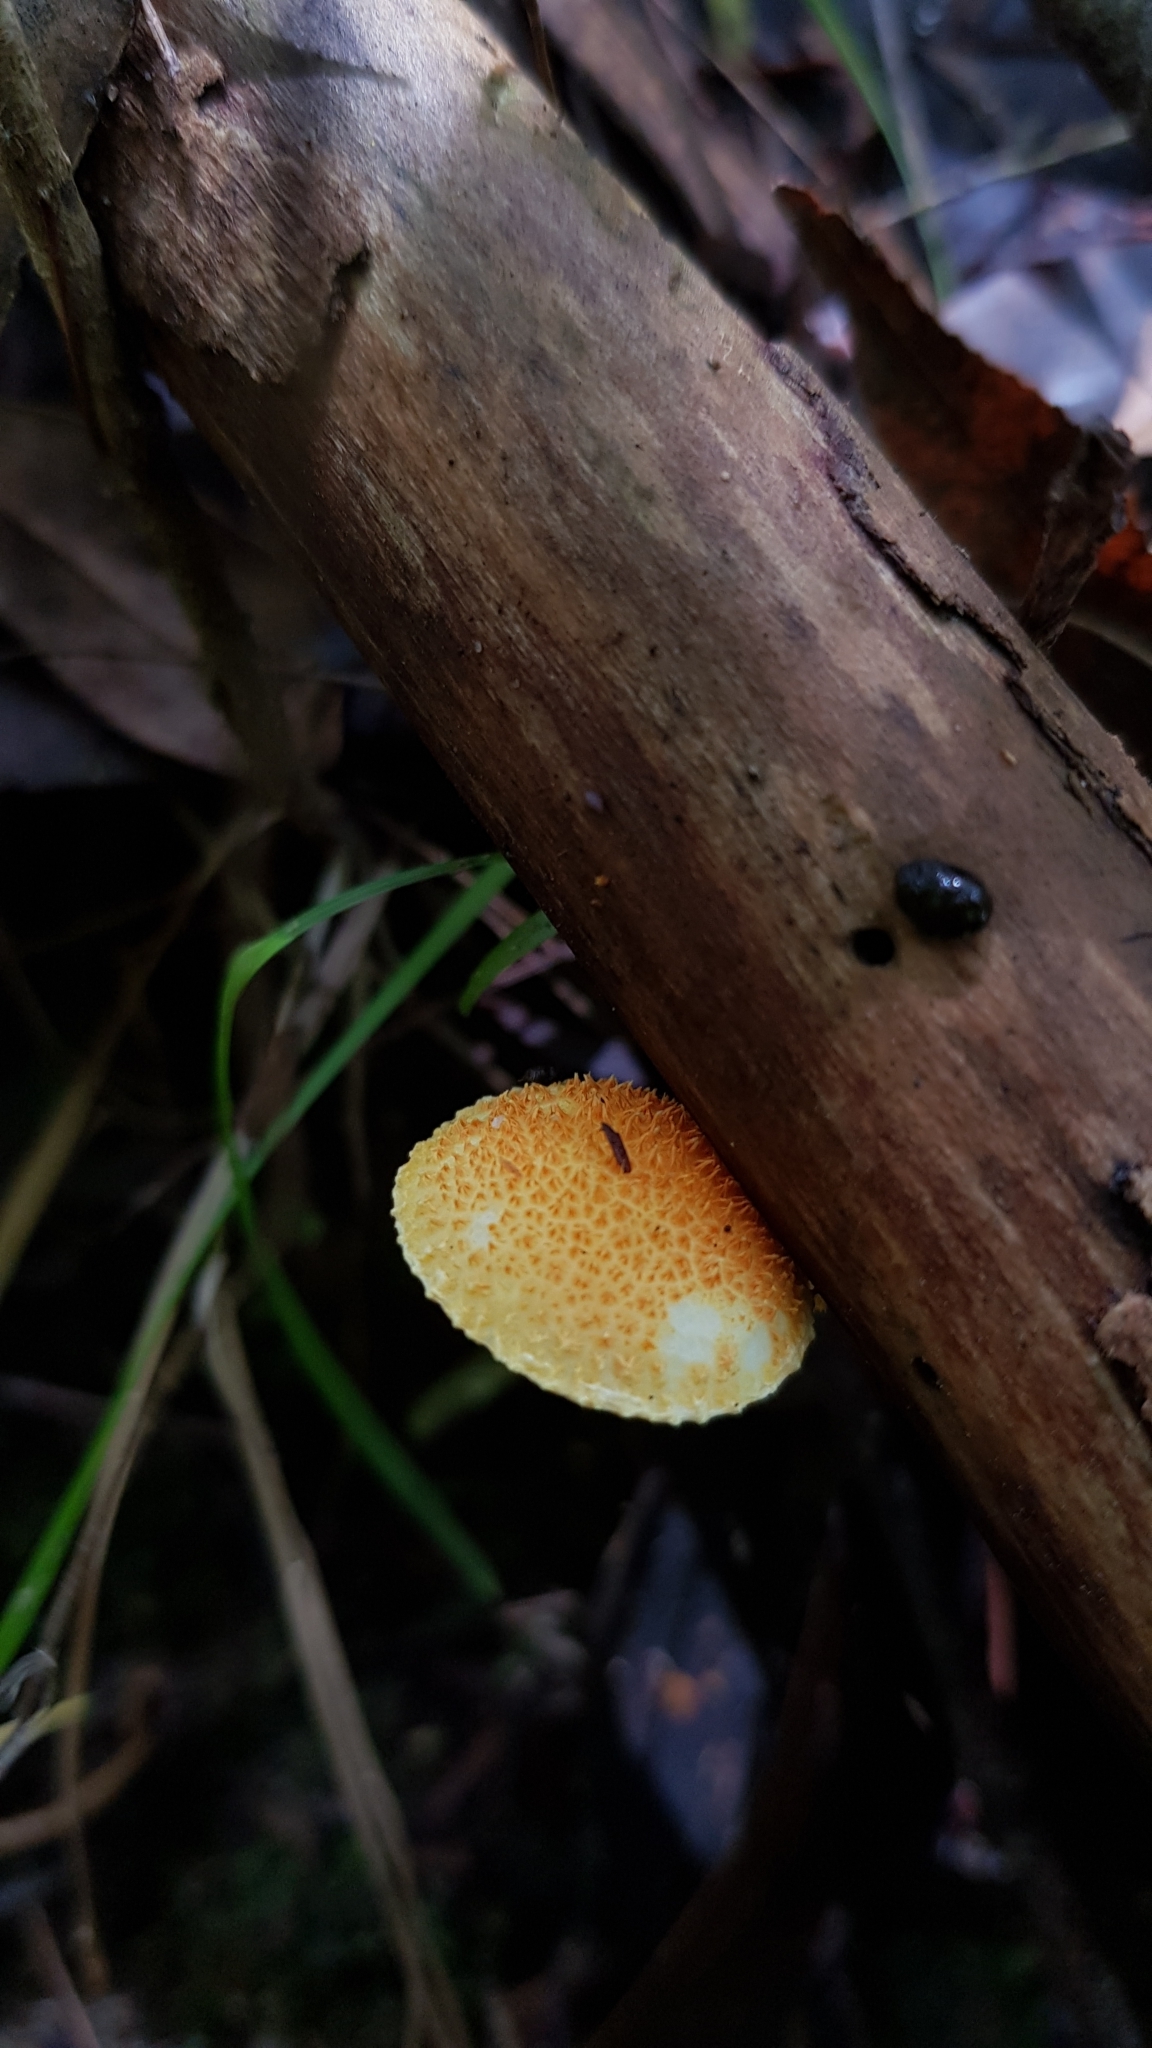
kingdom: Fungi
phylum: Basidiomycota
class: Agaricomycetes
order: Agaricales
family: Physalacriaceae
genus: Cyptotrama
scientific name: Cyptotrama asprata
